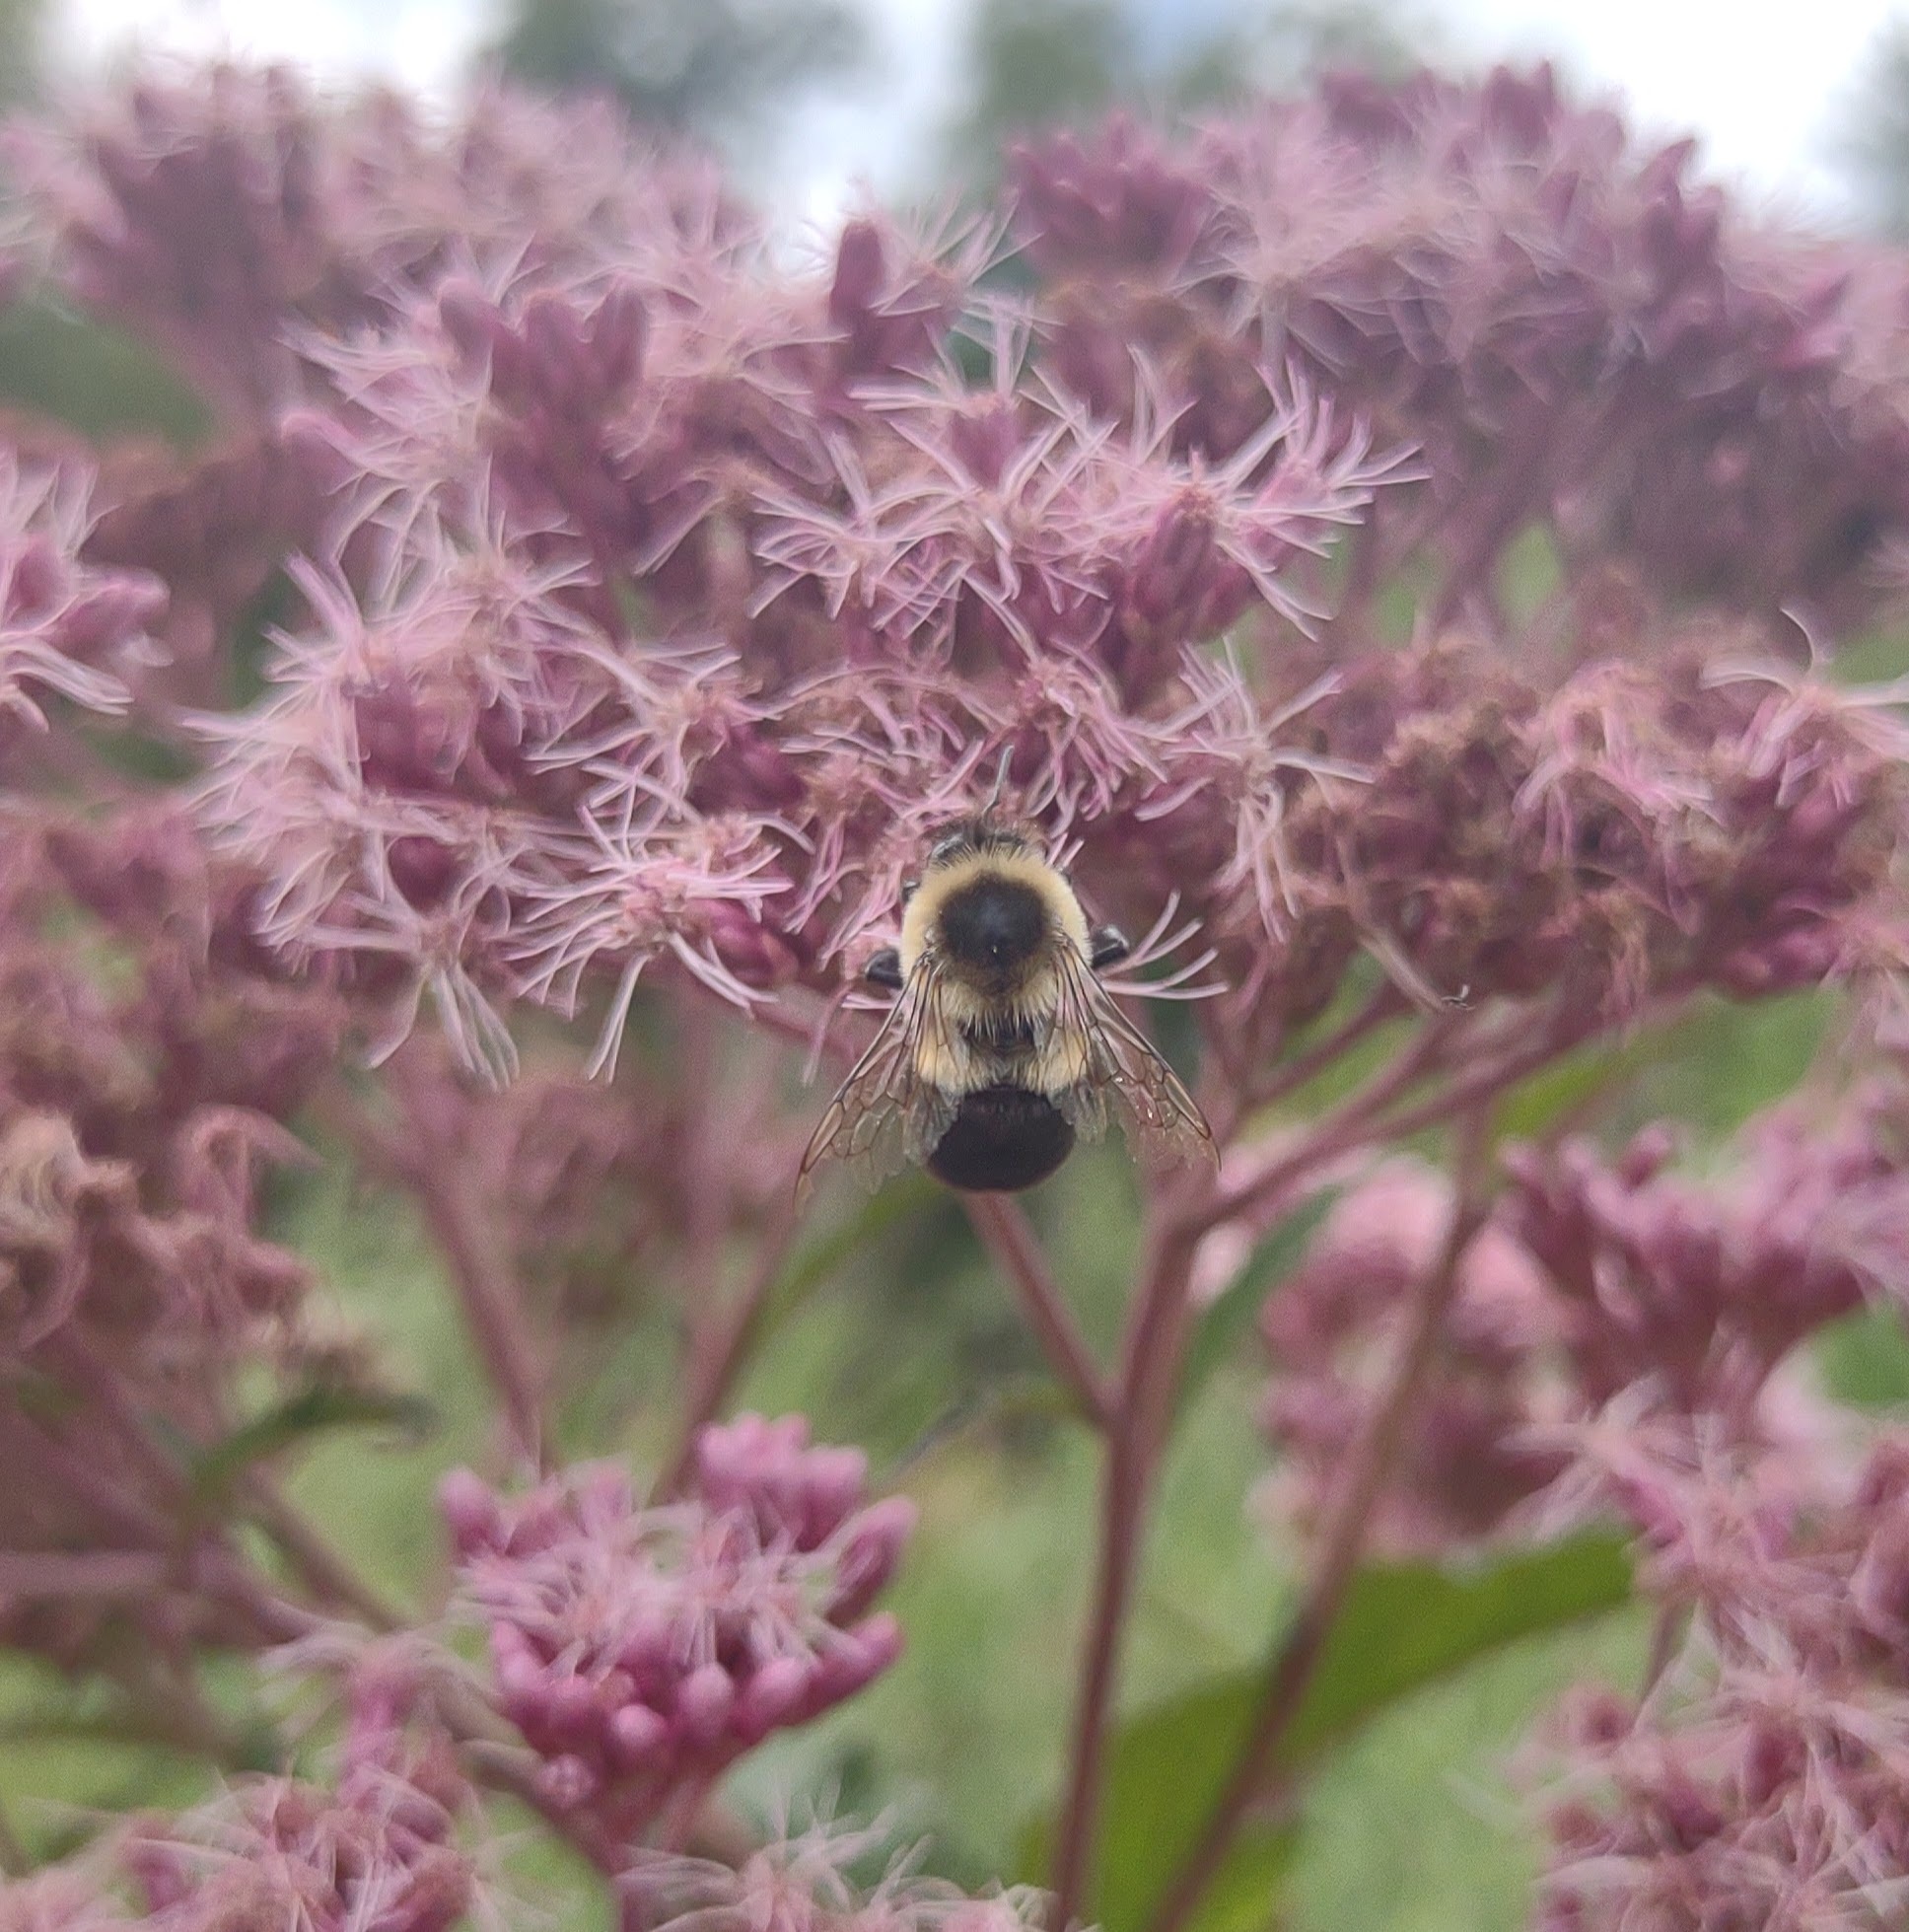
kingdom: Animalia
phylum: Arthropoda
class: Insecta
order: Hymenoptera
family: Apidae
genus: Bombus
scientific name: Bombus impatiens
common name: Common eastern bumble bee
